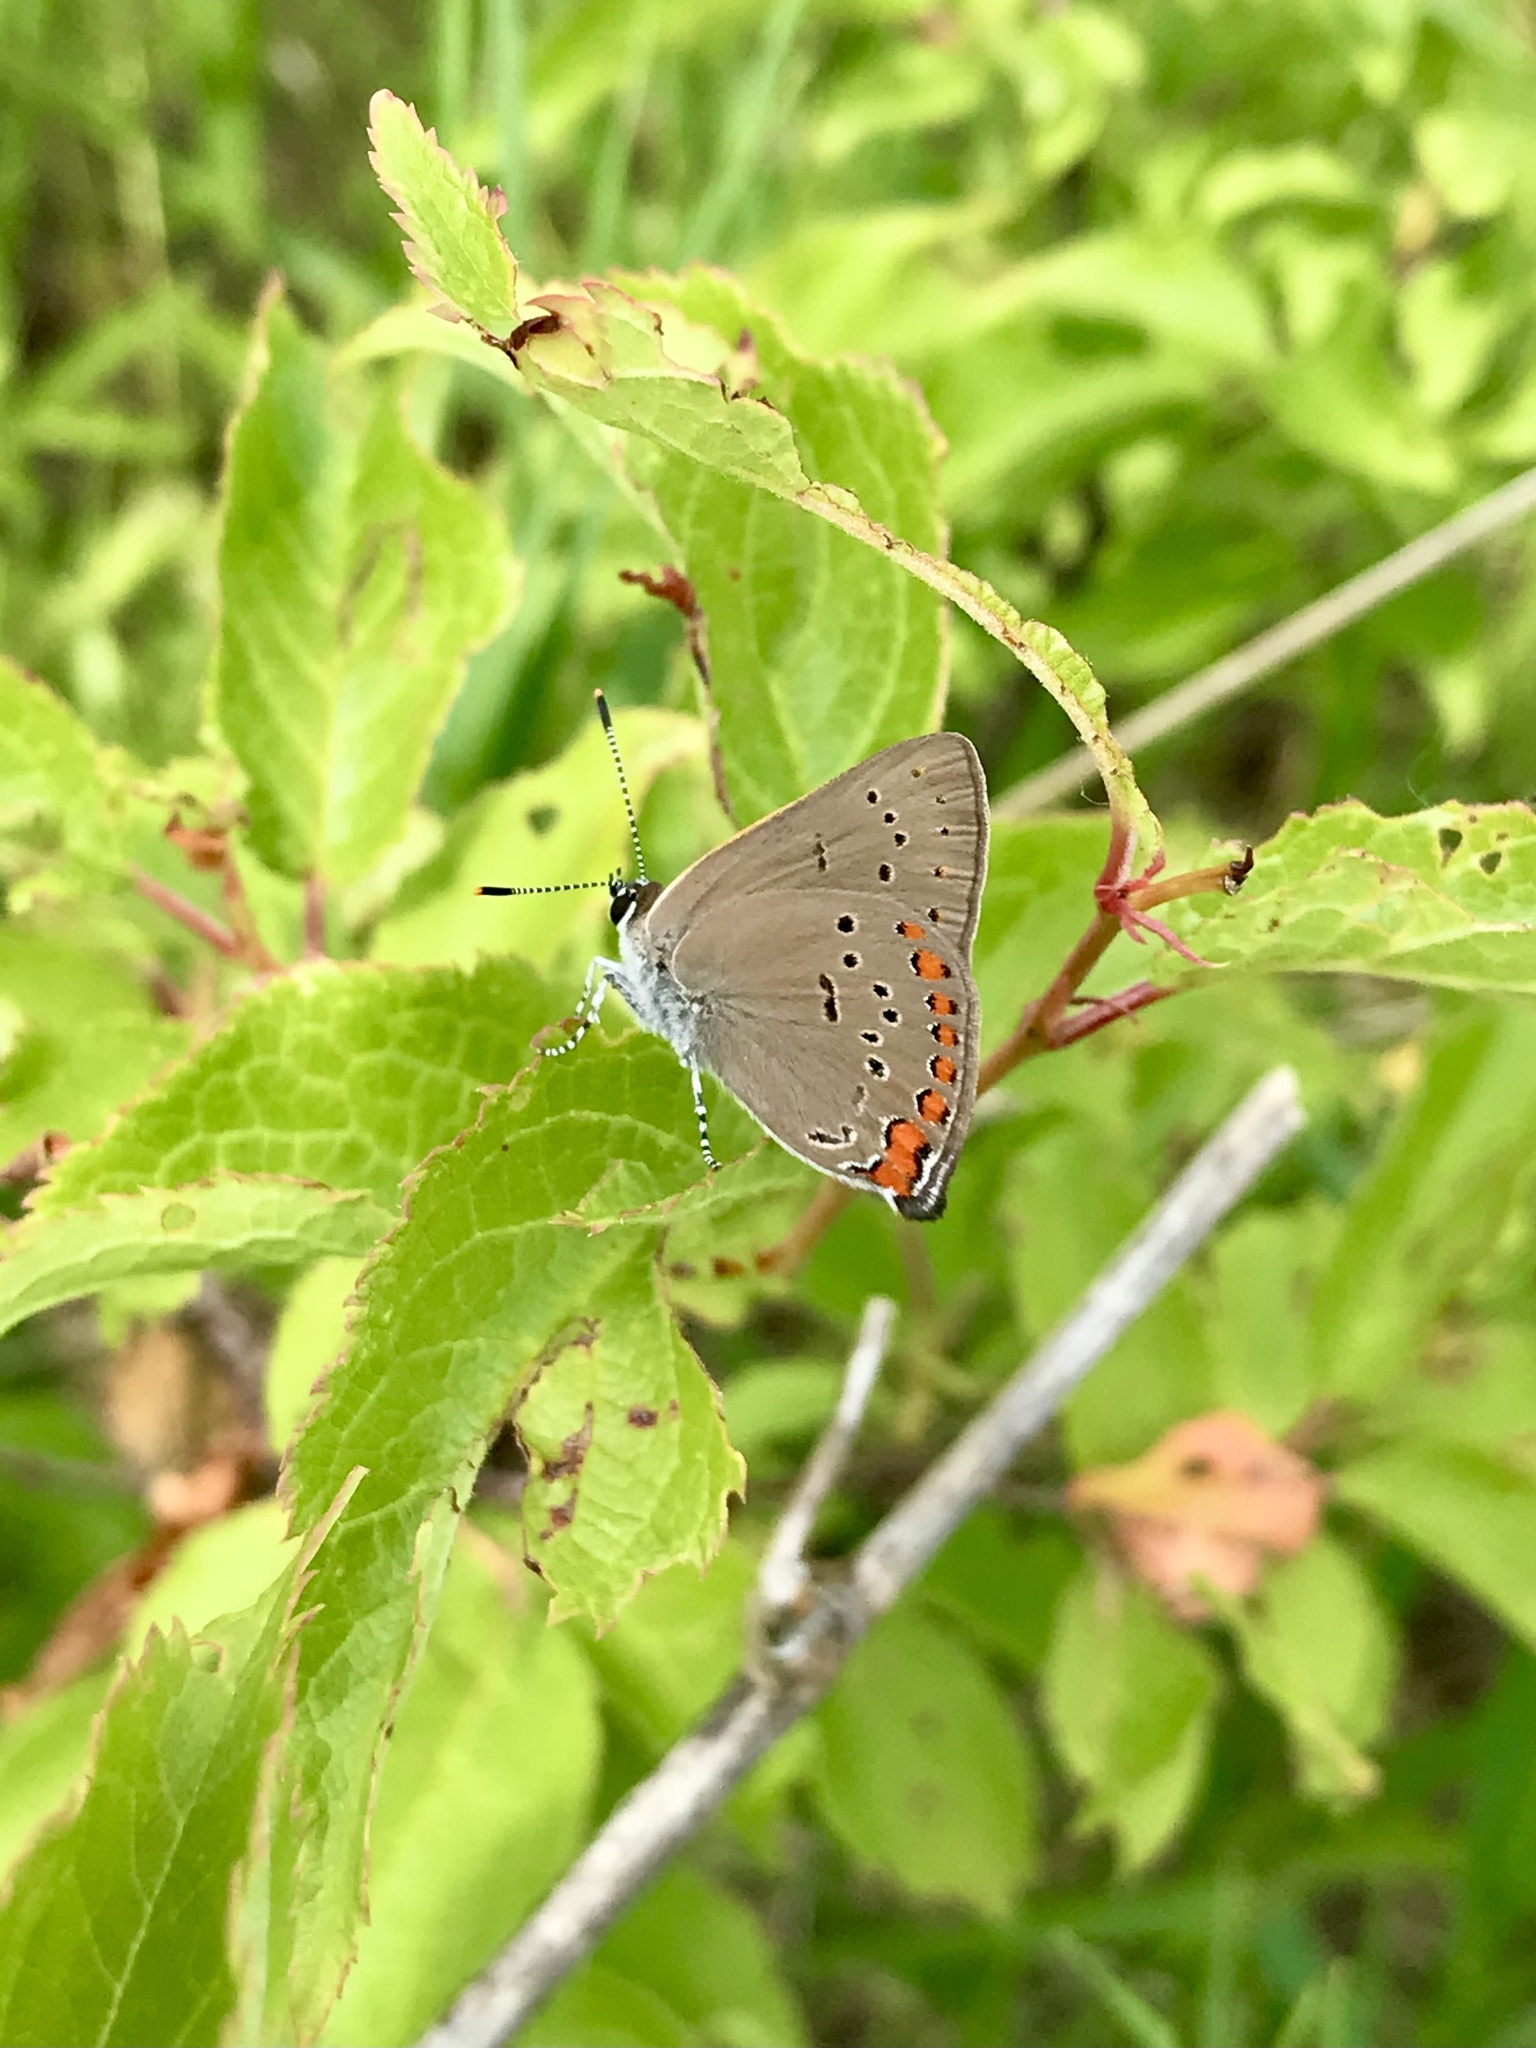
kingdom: Animalia
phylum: Arthropoda
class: Insecta
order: Lepidoptera
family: Lycaenidae
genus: Harkenclenus
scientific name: Harkenclenus titus
